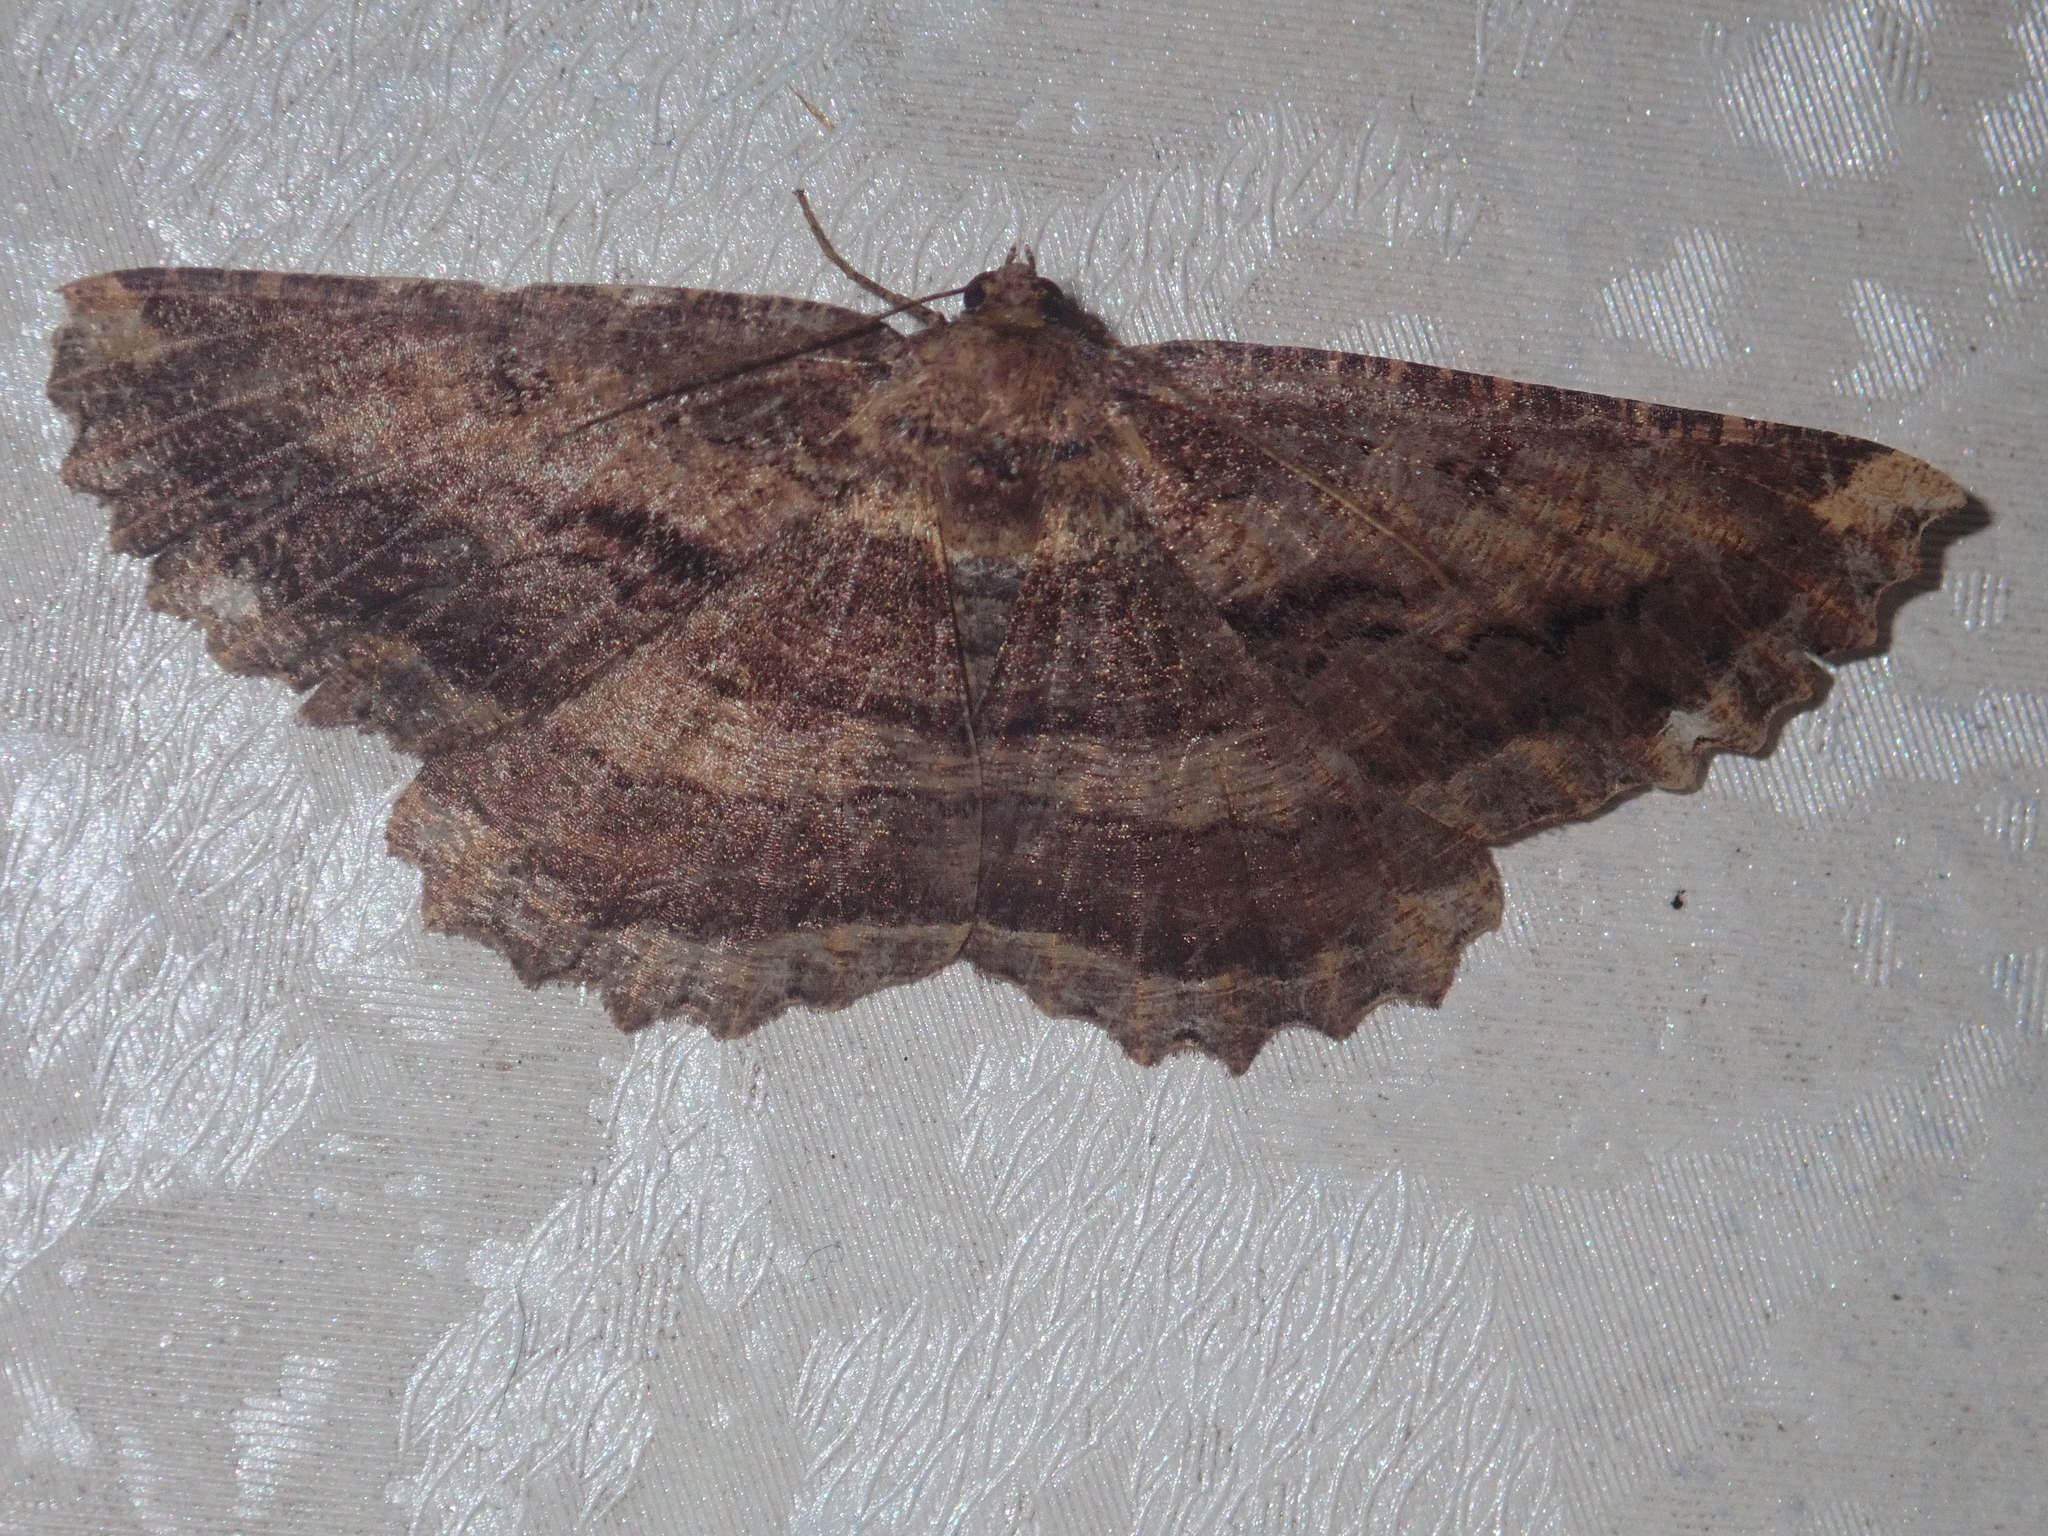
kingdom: Animalia
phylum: Arthropoda
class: Insecta
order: Lepidoptera
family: Geometridae
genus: Gellonia
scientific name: Gellonia dejectaria
